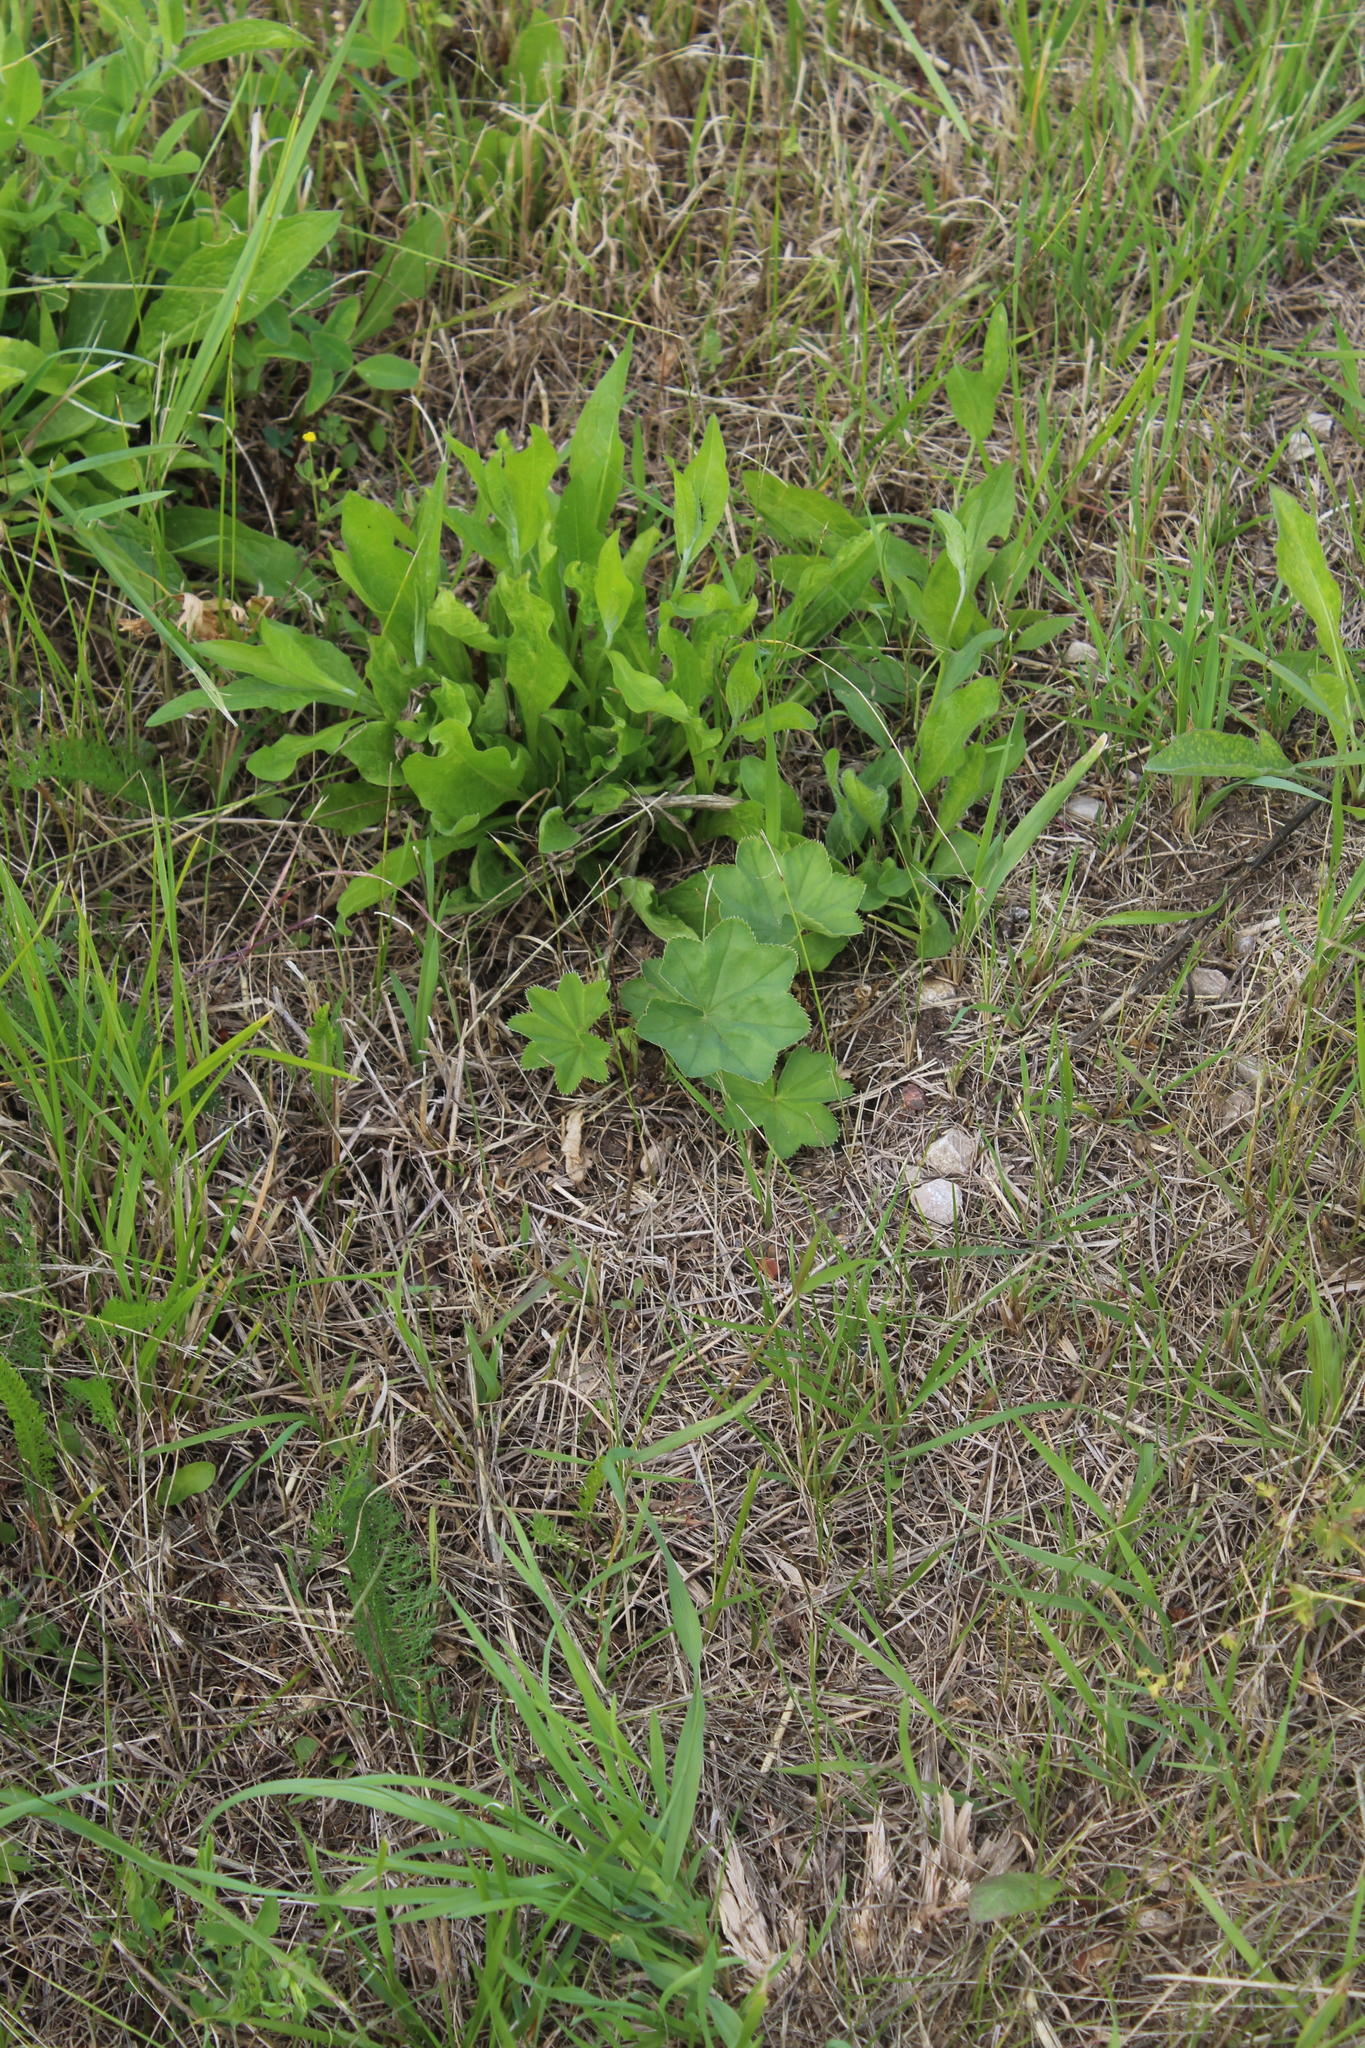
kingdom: Plantae
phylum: Tracheophyta
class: Magnoliopsida
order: Rosales
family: Rosaceae
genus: Alchemilla
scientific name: Alchemilla
